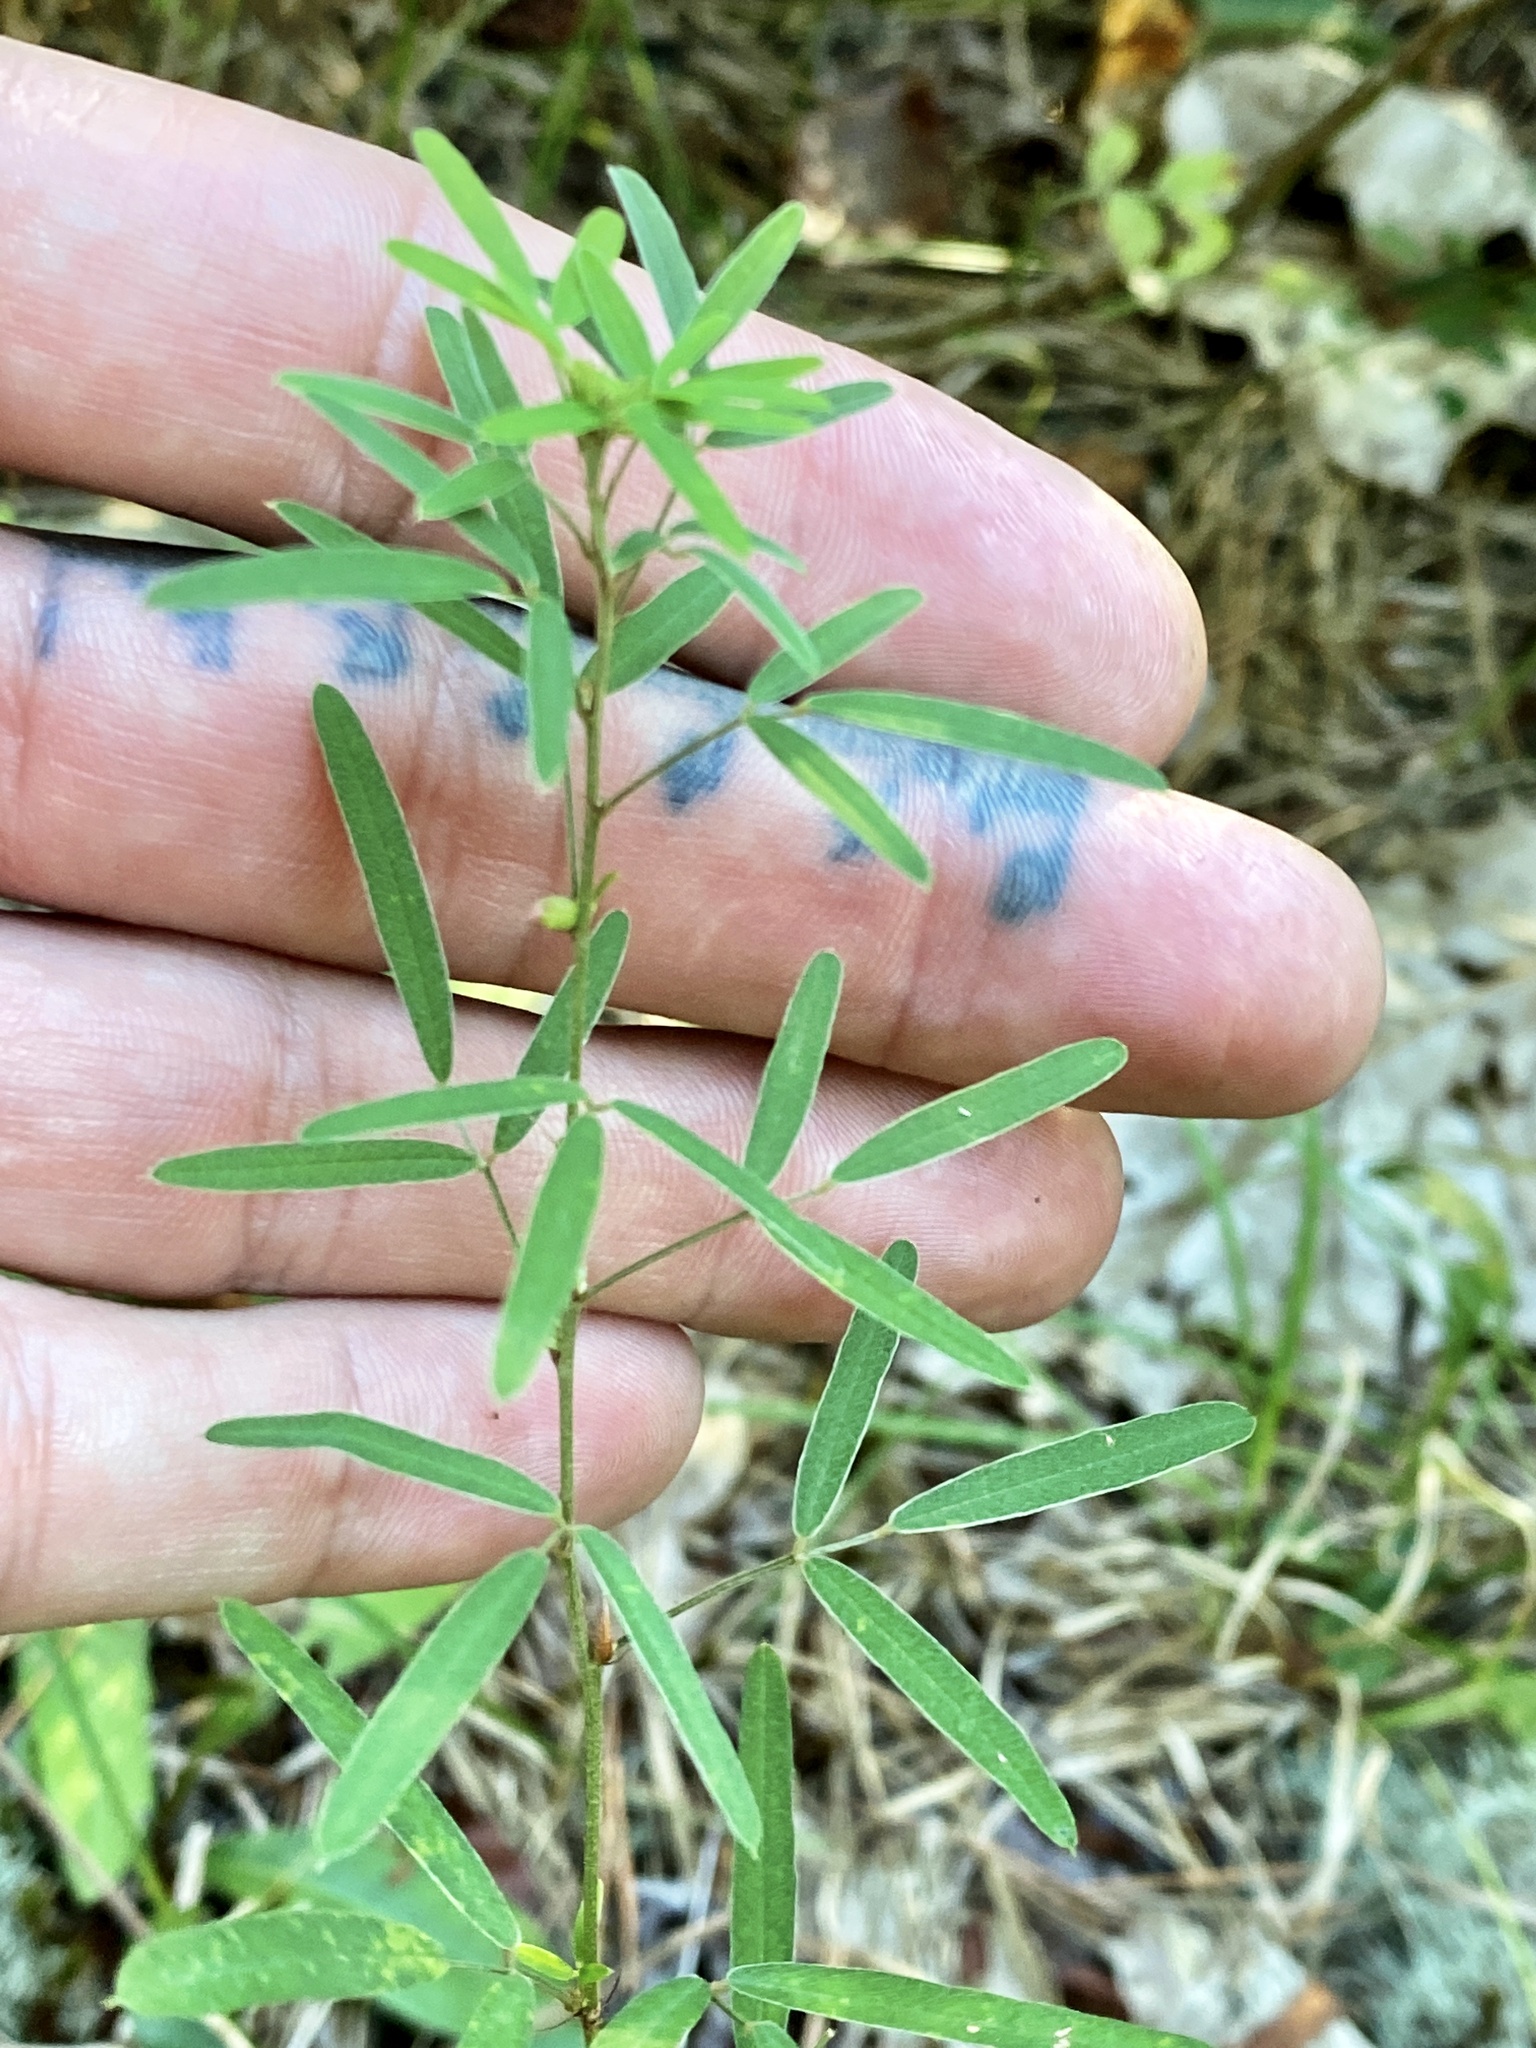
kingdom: Plantae
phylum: Tracheophyta
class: Magnoliopsida
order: Fabales
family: Fabaceae
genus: Lespedeza
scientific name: Lespedeza virginica
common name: Slender bush-clover
